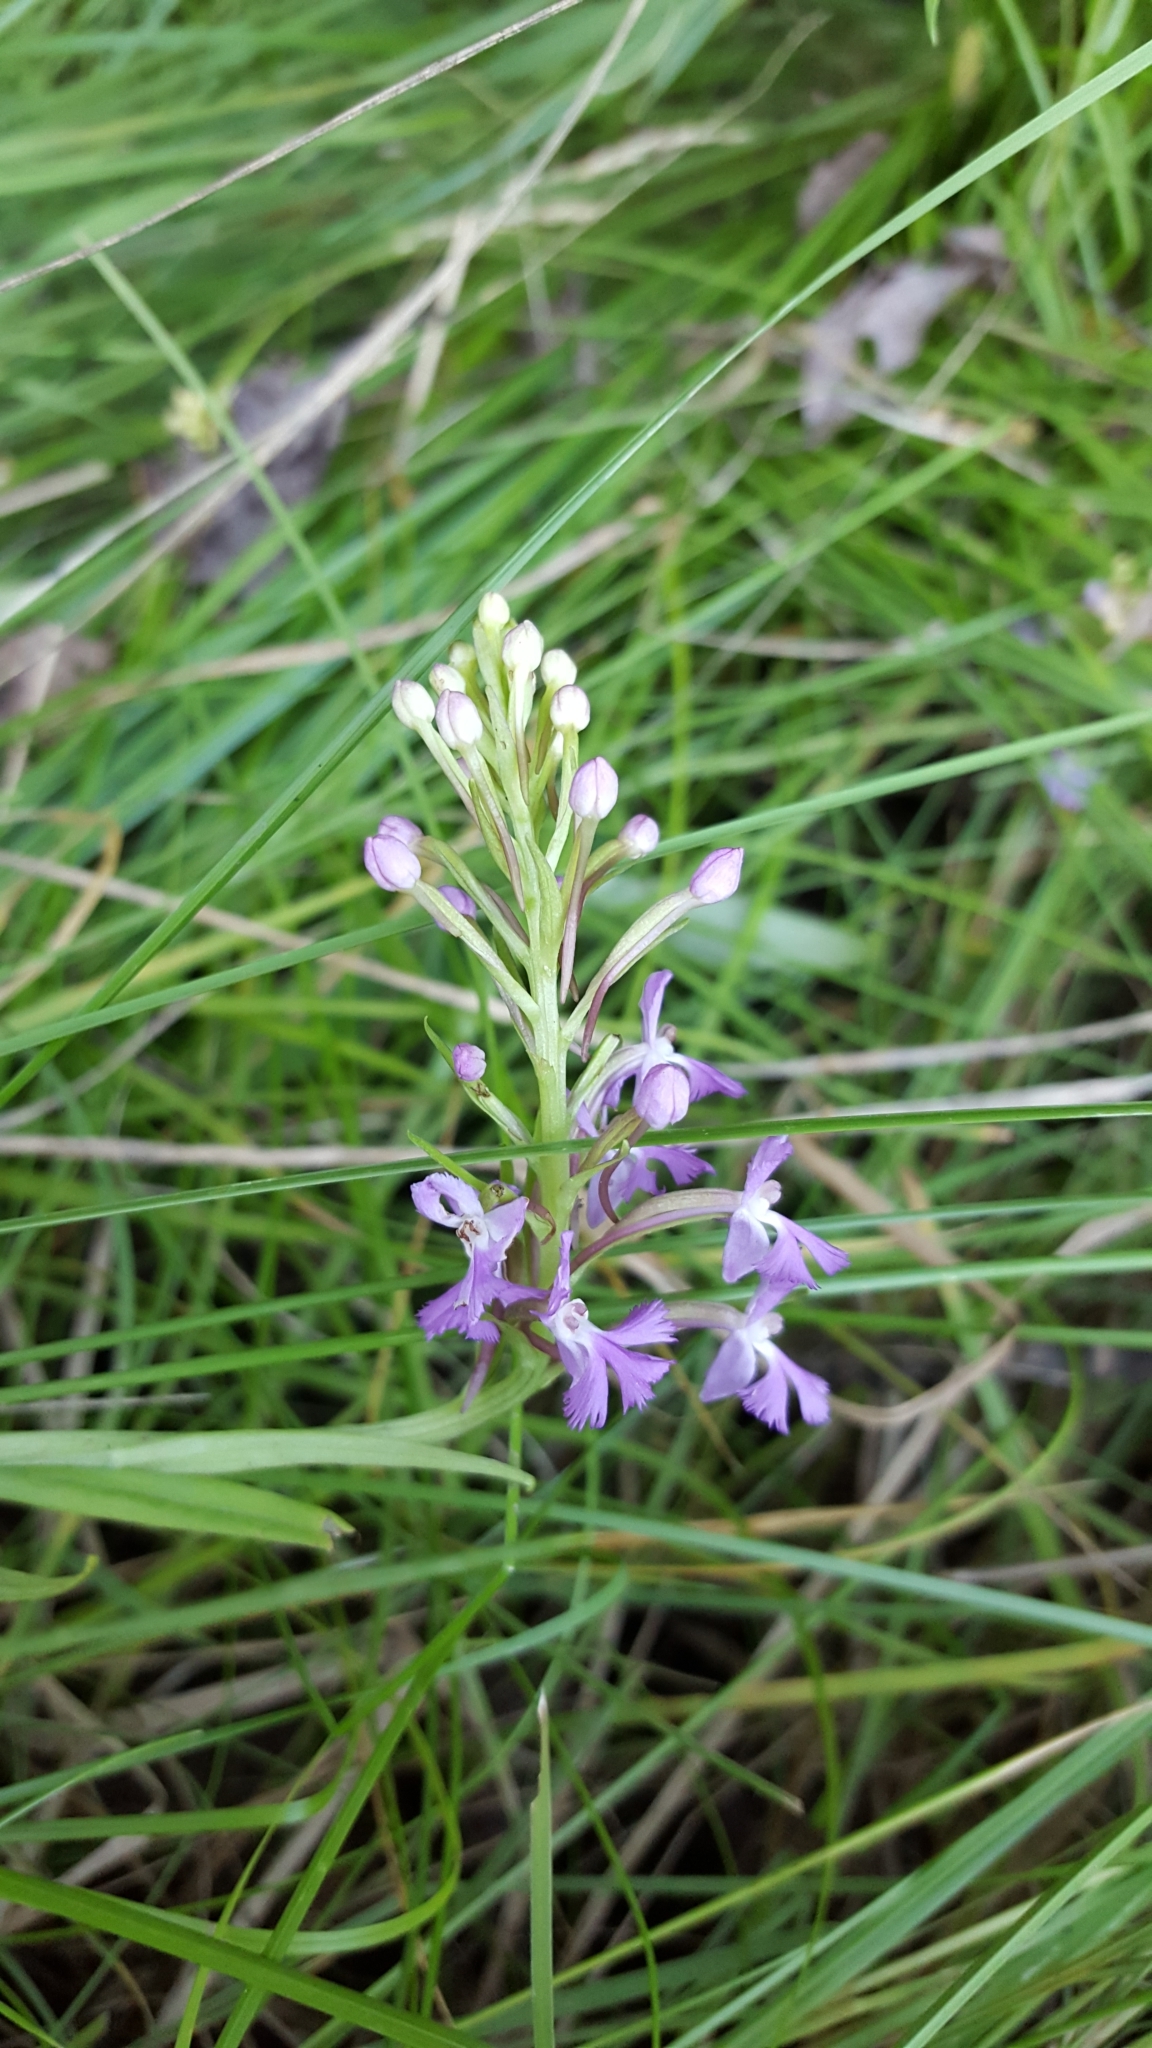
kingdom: Plantae
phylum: Tracheophyta
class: Liliopsida
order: Asparagales
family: Orchidaceae
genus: Platanthera
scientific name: Platanthera psycodes
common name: Lesser purple fringed orchid
